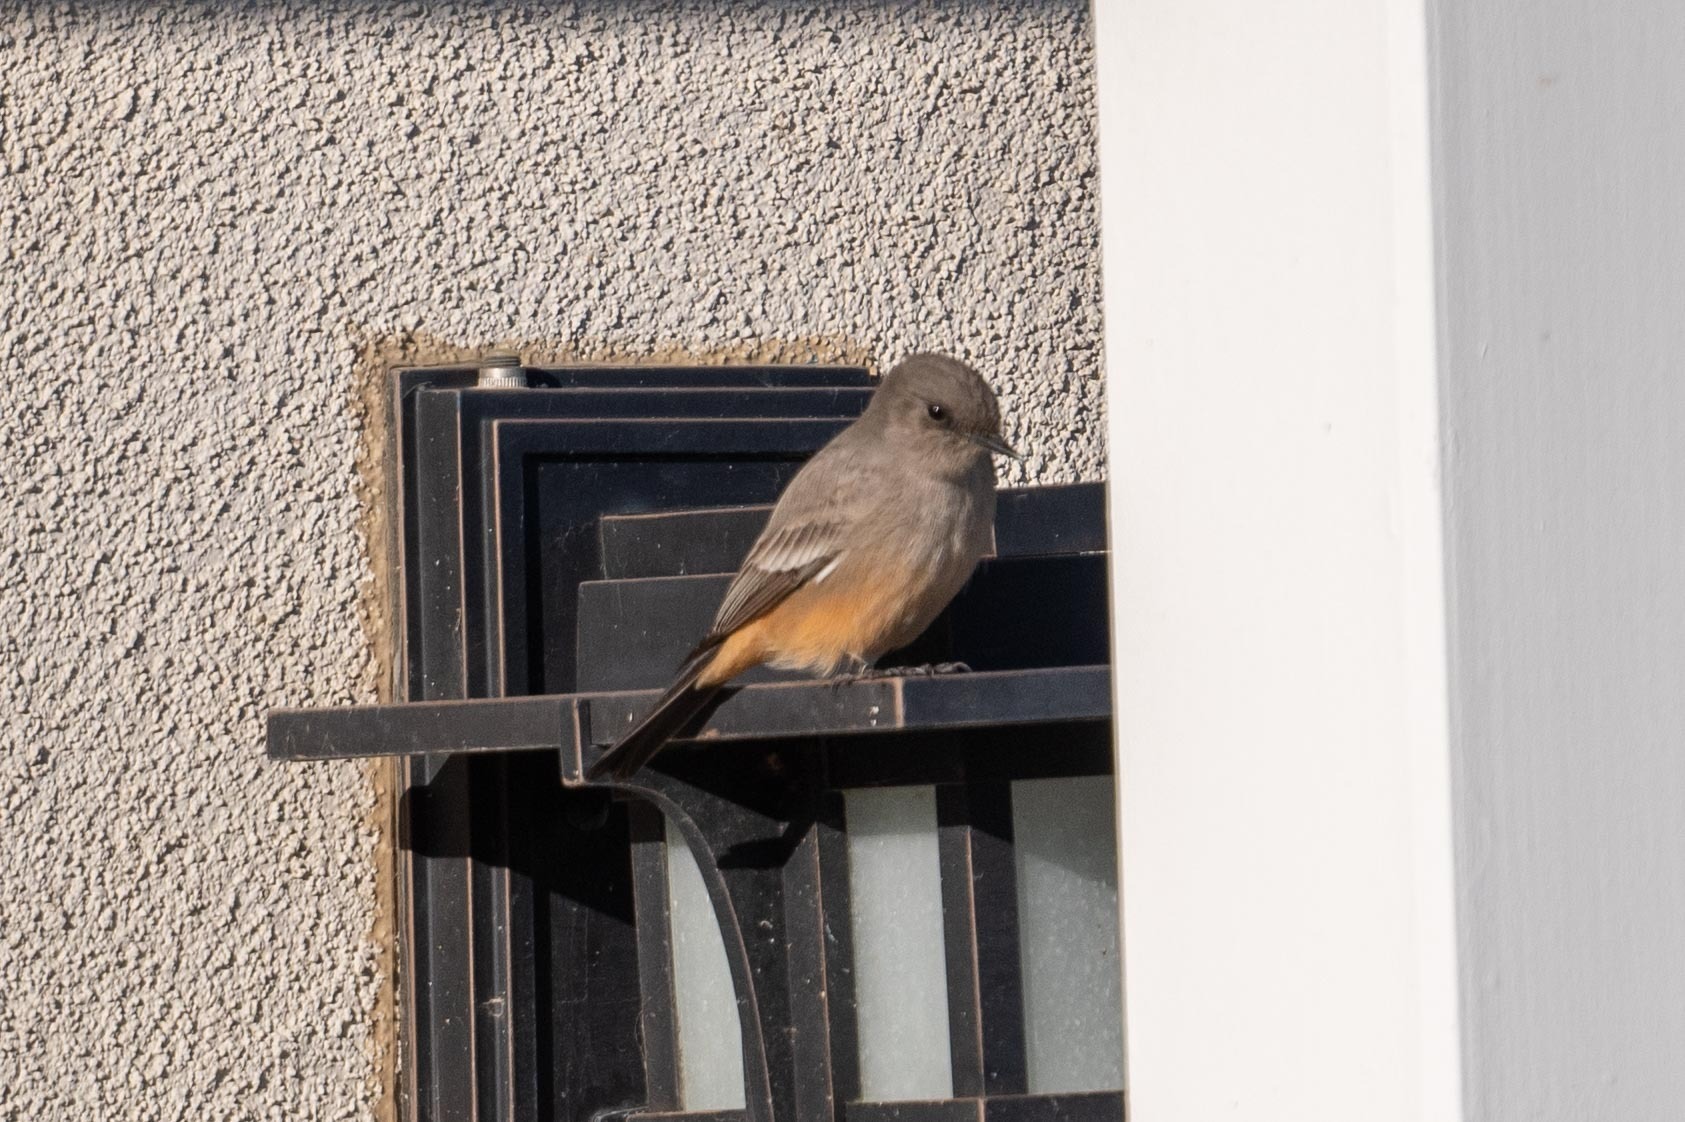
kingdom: Animalia
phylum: Chordata
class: Aves
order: Passeriformes
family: Tyrannidae
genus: Sayornis
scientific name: Sayornis saya
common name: Say's phoebe
